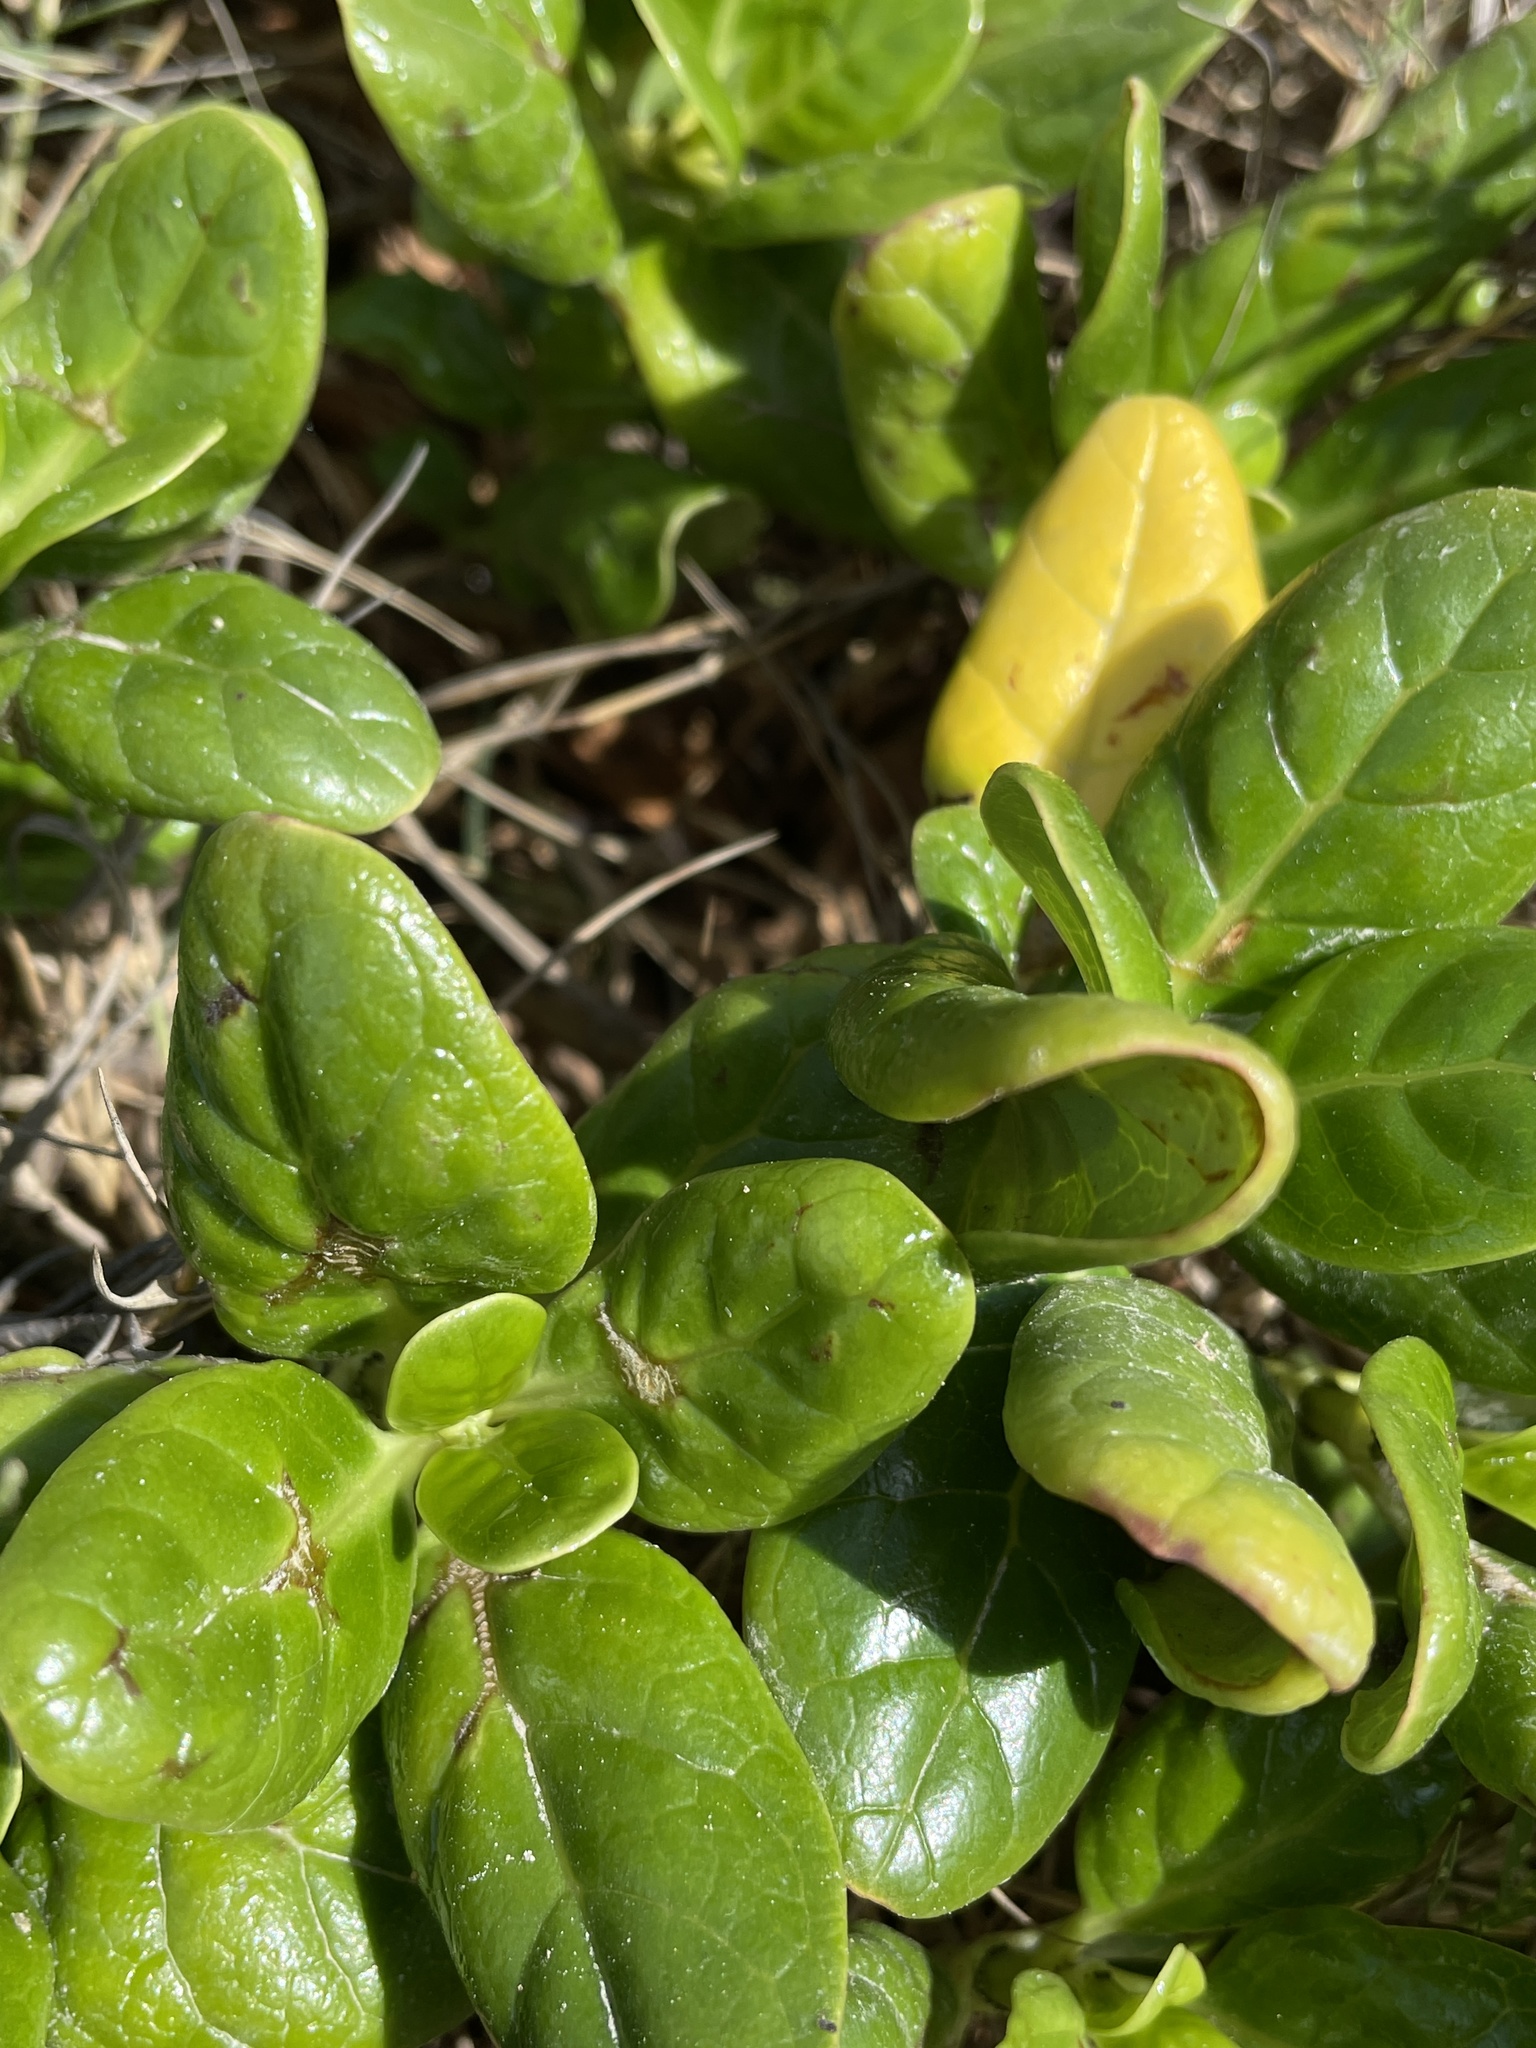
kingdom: Plantae
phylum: Tracheophyta
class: Magnoliopsida
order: Gentianales
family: Rubiaceae
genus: Coprosma
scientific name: Coprosma repens
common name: Tree bedstraw
